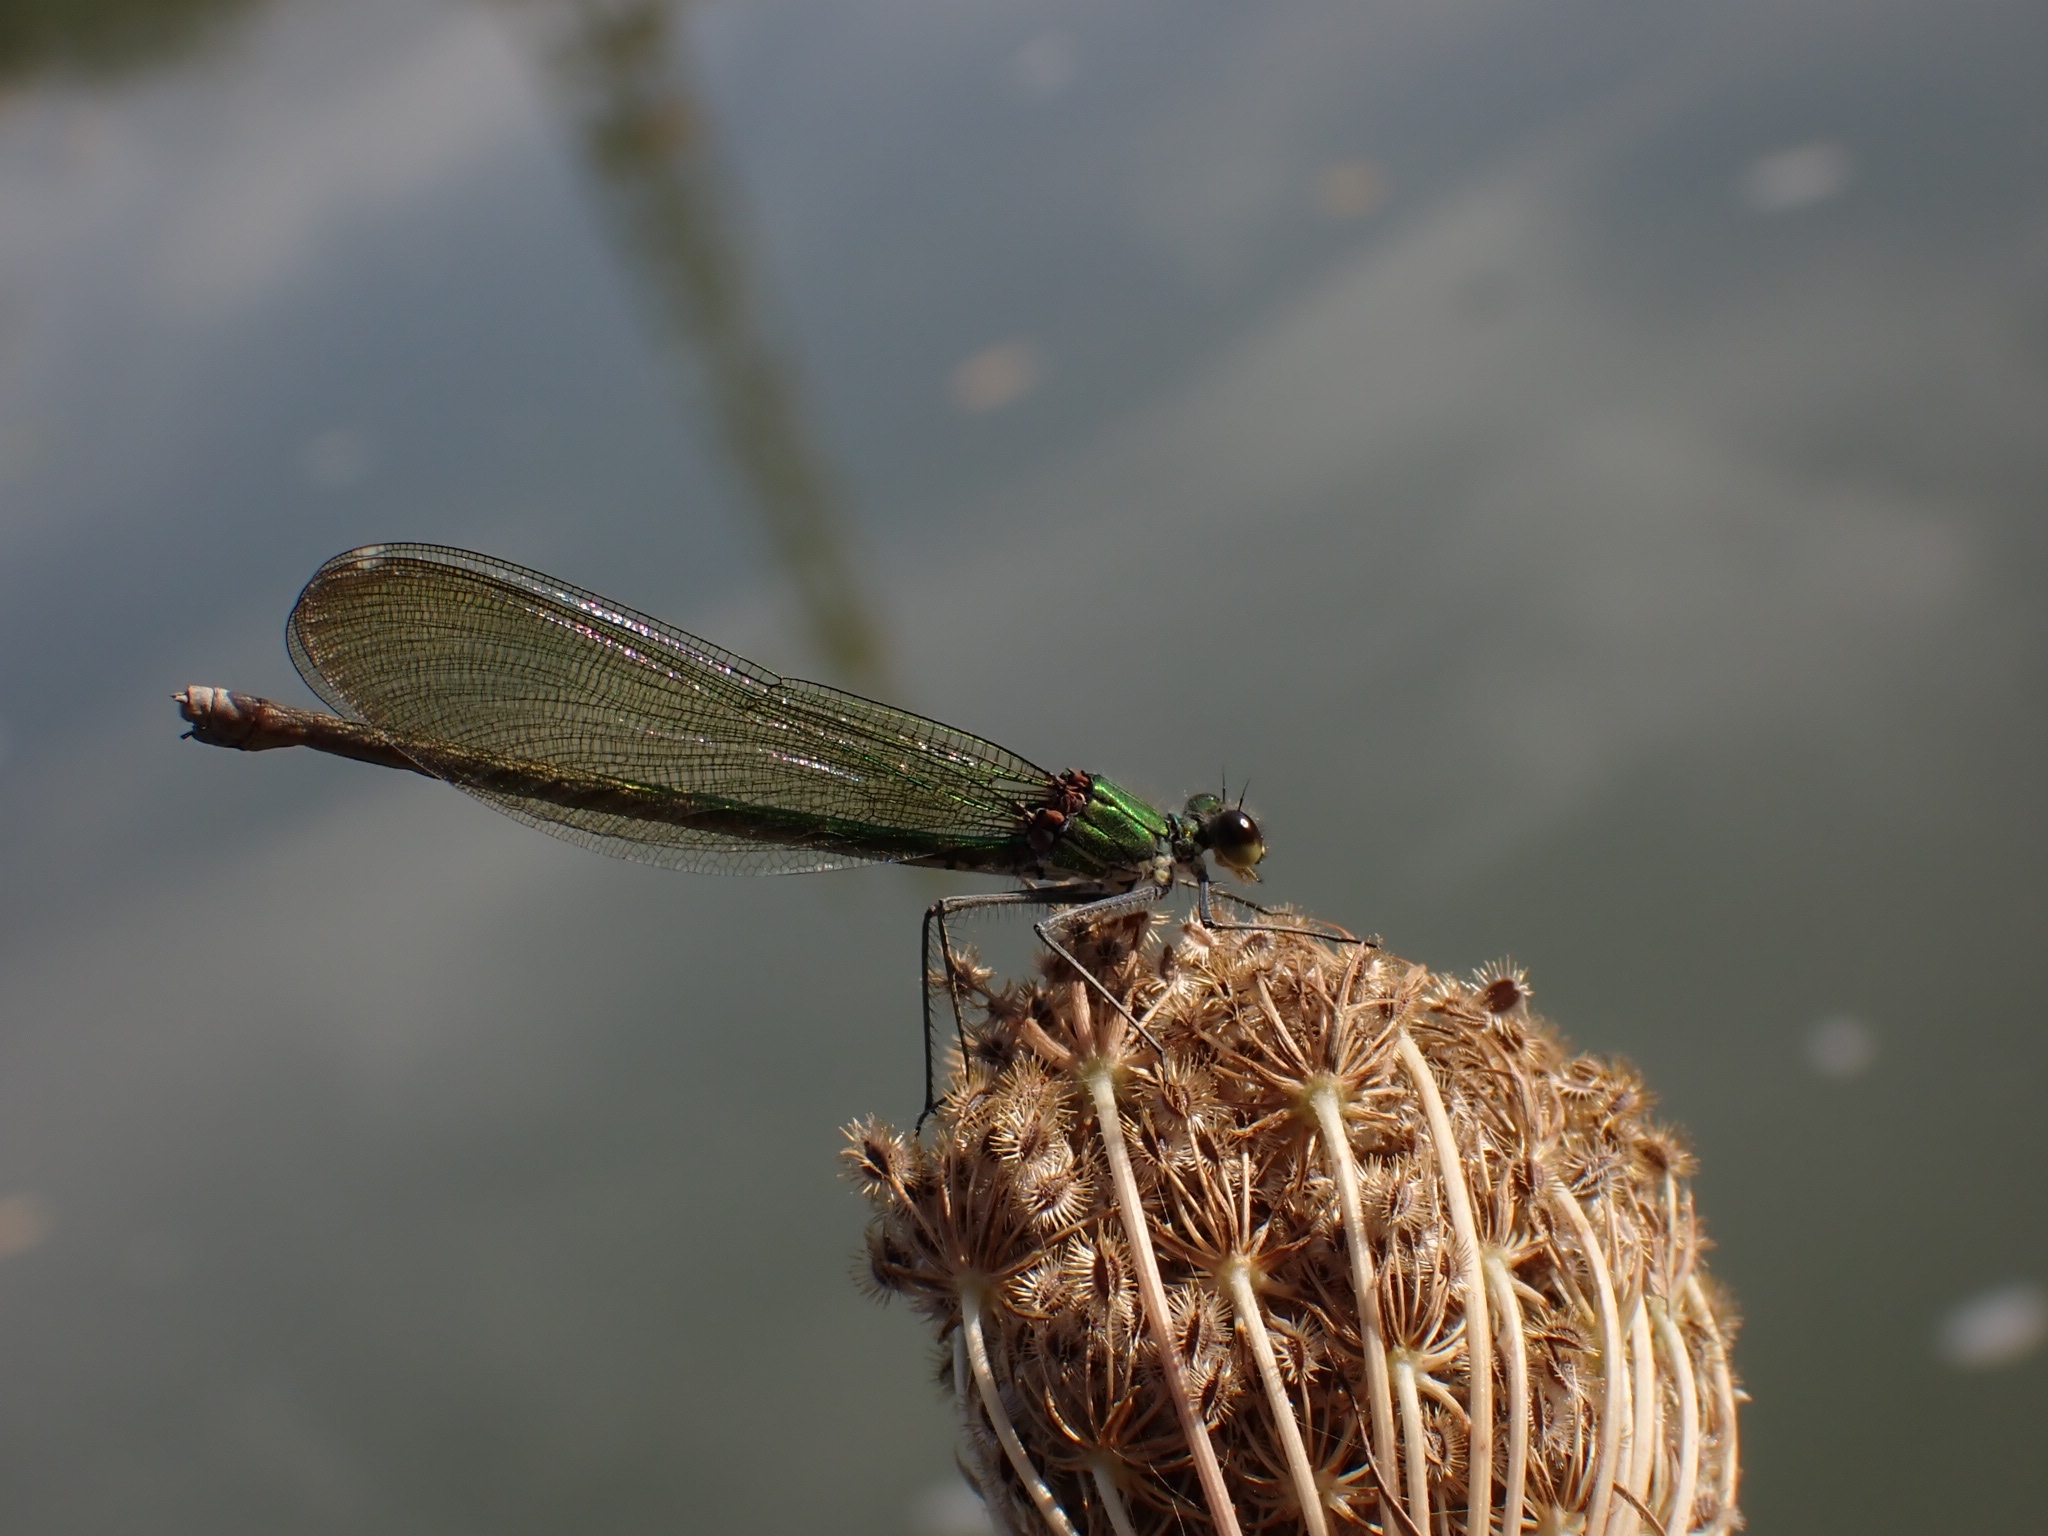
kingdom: Animalia
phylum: Arthropoda
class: Insecta
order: Odonata
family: Calopterygidae
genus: Calopteryx
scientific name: Calopteryx xanthostoma
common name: Western demoiselle
